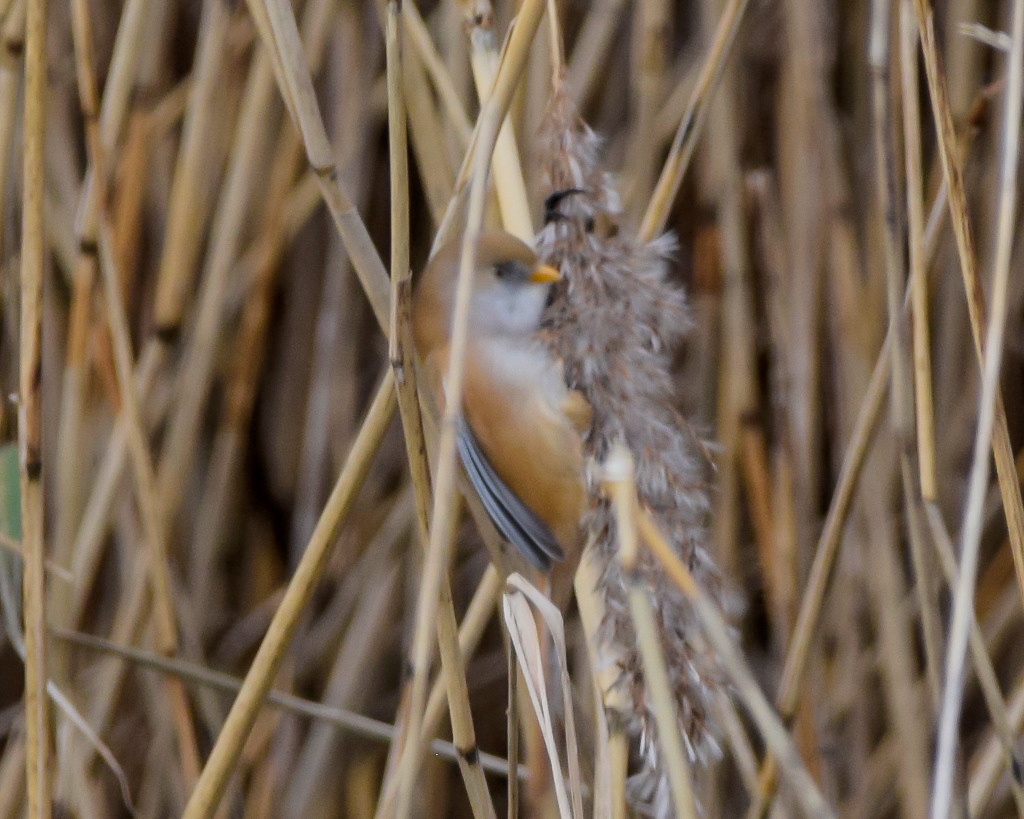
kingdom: Animalia
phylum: Chordata
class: Aves
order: Passeriformes
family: Panuridae
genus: Panurus
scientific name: Panurus biarmicus
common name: Bearded reedling
